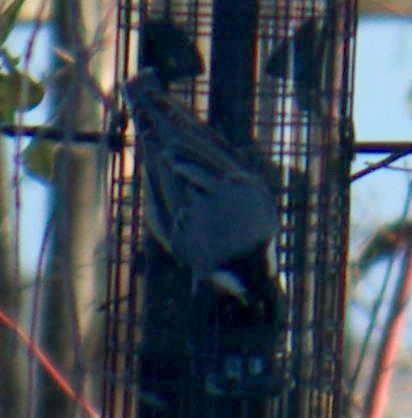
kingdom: Animalia
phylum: Chordata
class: Aves
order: Passeriformes
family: Sittidae
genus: Sitta
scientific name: Sitta carolinensis
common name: White-breasted nuthatch
